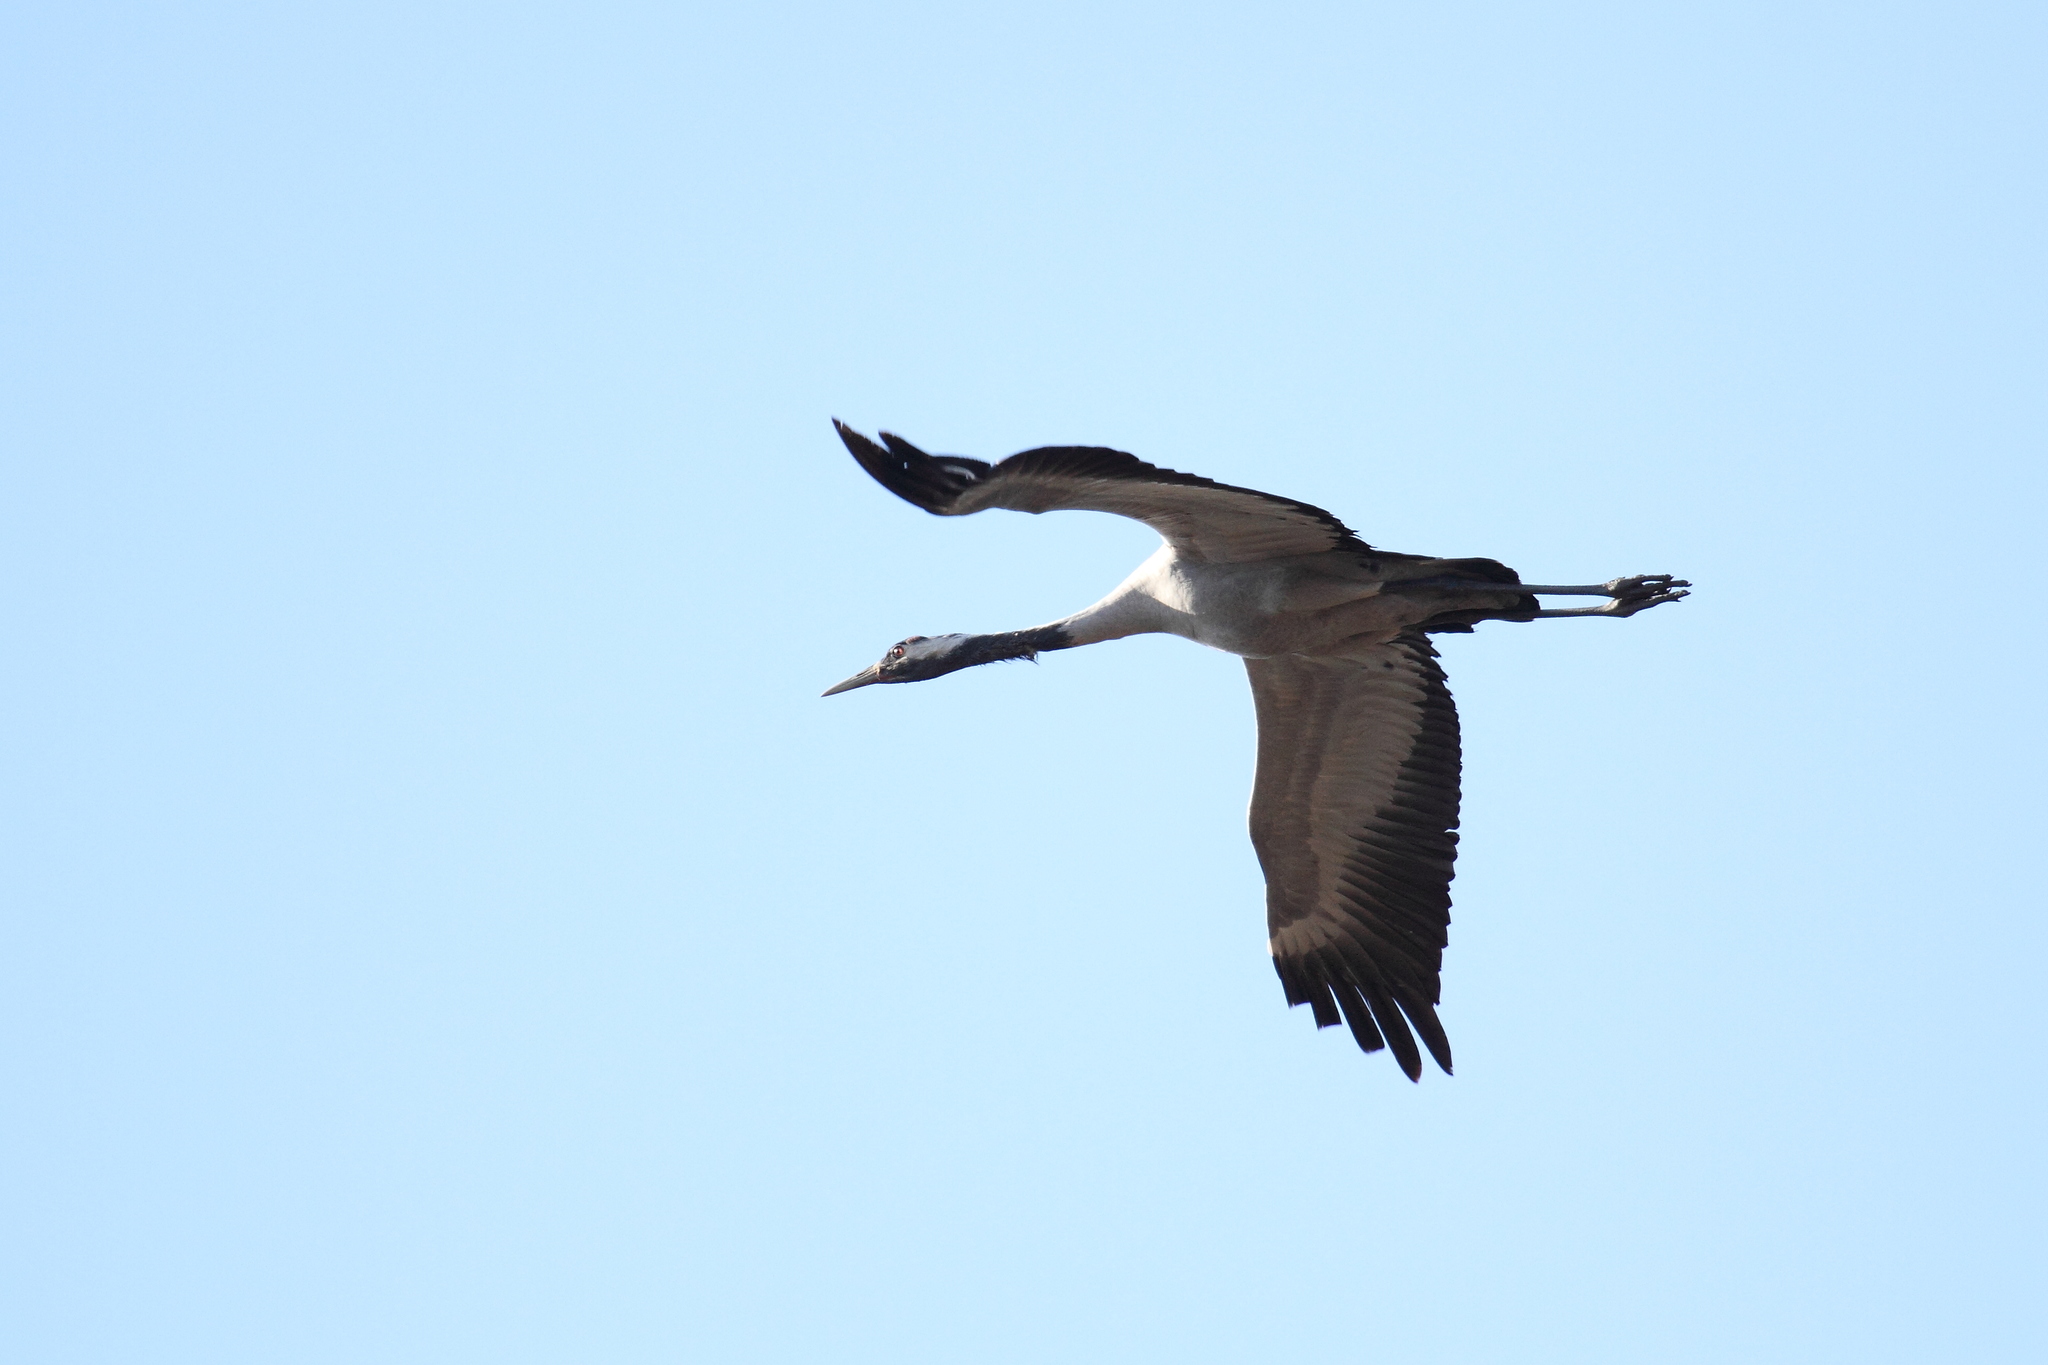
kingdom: Animalia
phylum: Chordata
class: Aves
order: Gruiformes
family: Gruidae
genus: Grus
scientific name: Grus grus
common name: Common crane
